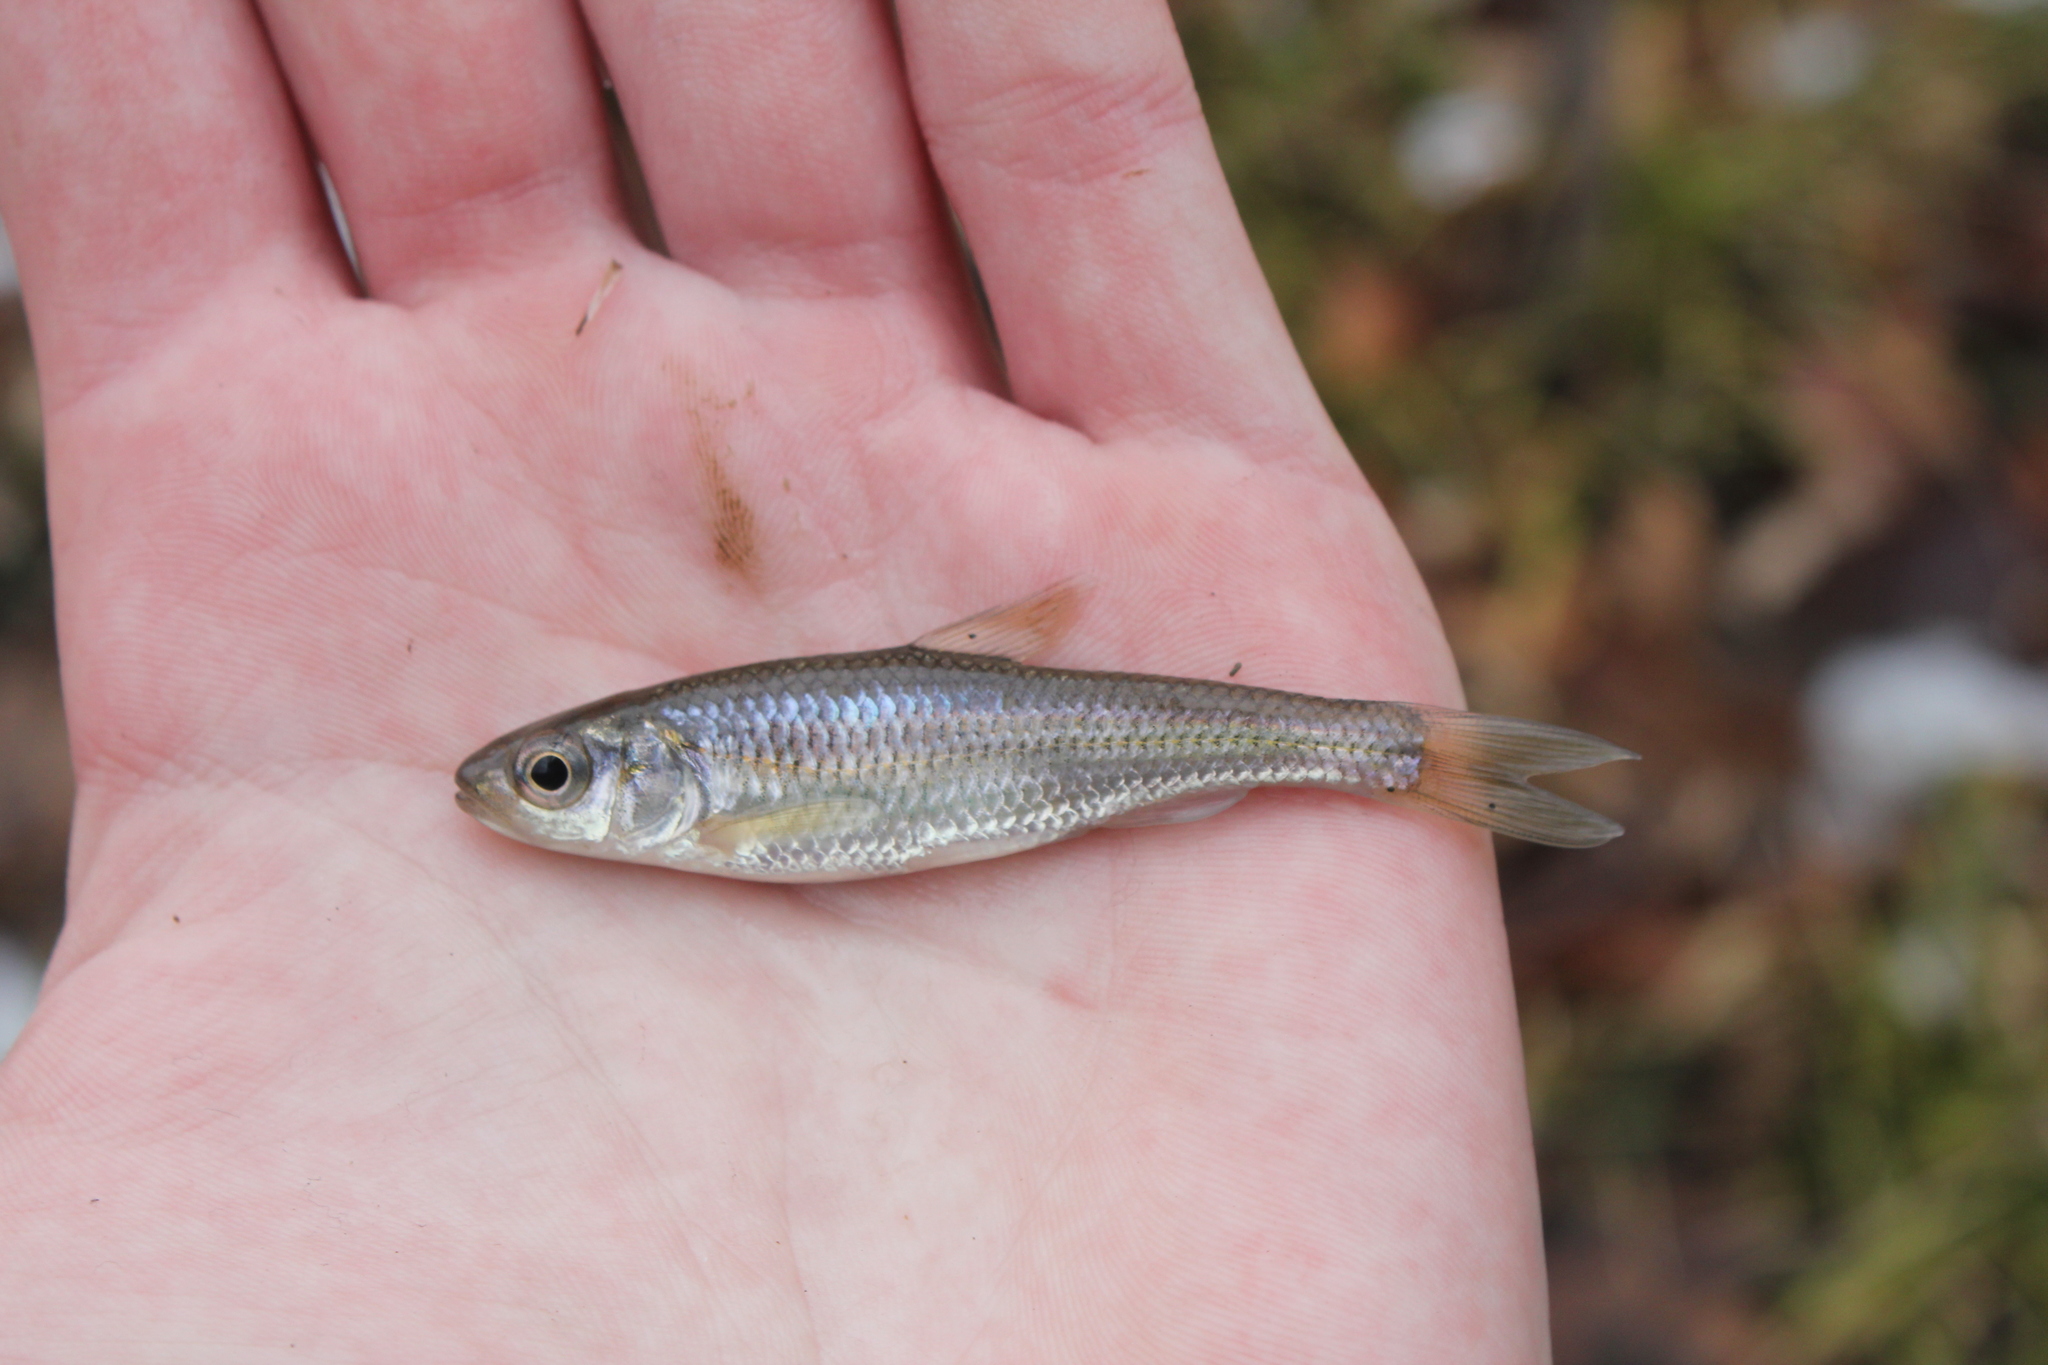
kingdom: Animalia
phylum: Chordata
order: Cypriniformes
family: Cyprinidae
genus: Luxilus
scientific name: Luxilus chrysocephalus
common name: Striped shiner
